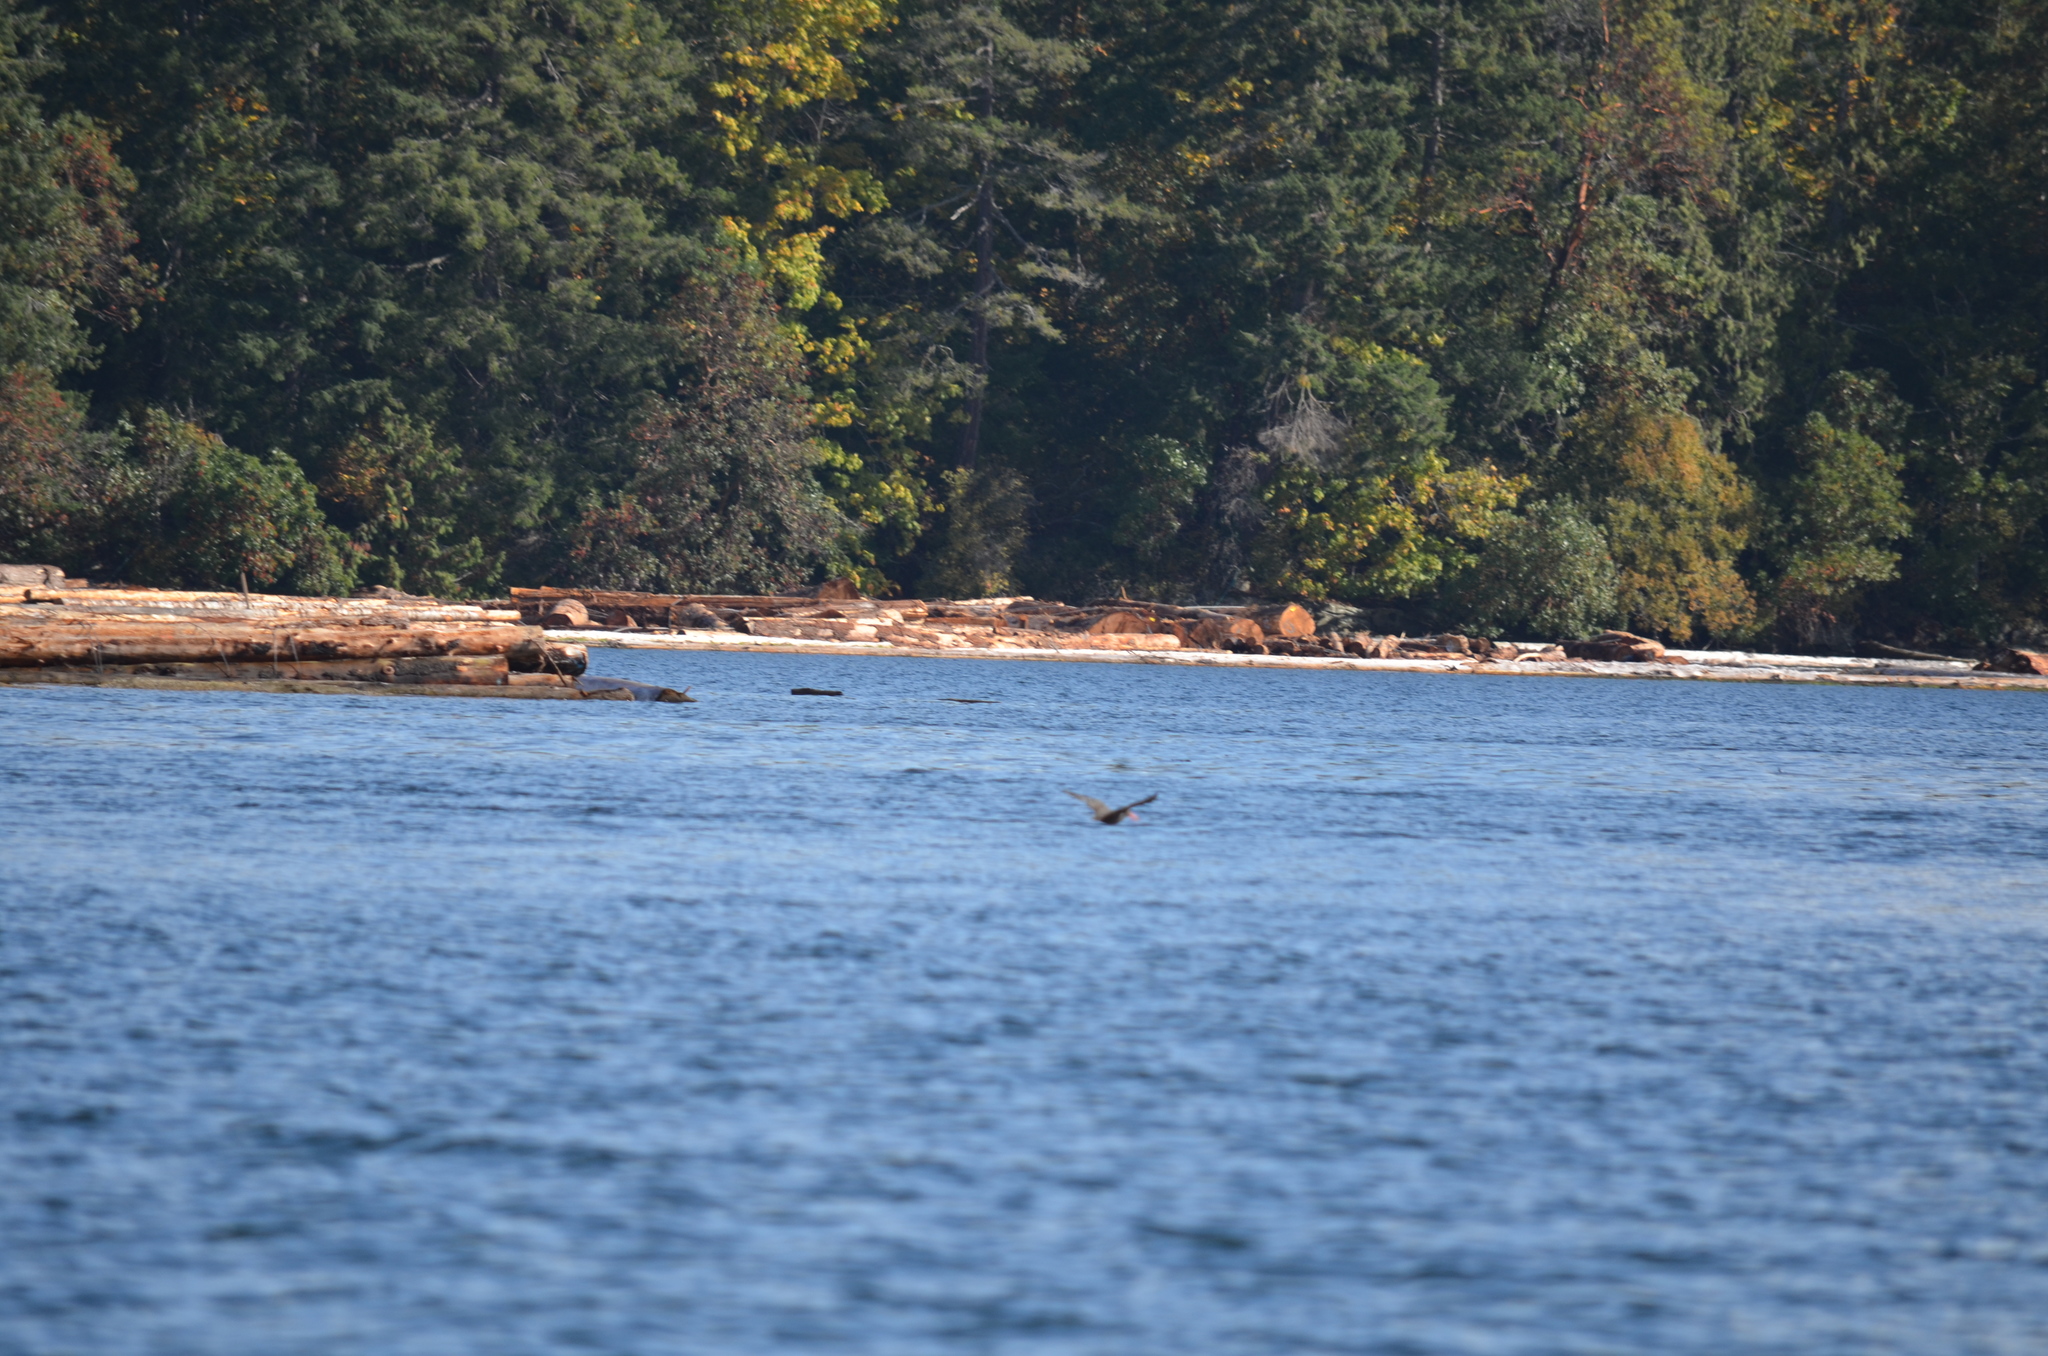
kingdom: Animalia
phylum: Chordata
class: Aves
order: Charadriiformes
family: Haematopodidae
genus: Haematopus
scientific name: Haematopus bachmani
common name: Black oystercatcher
